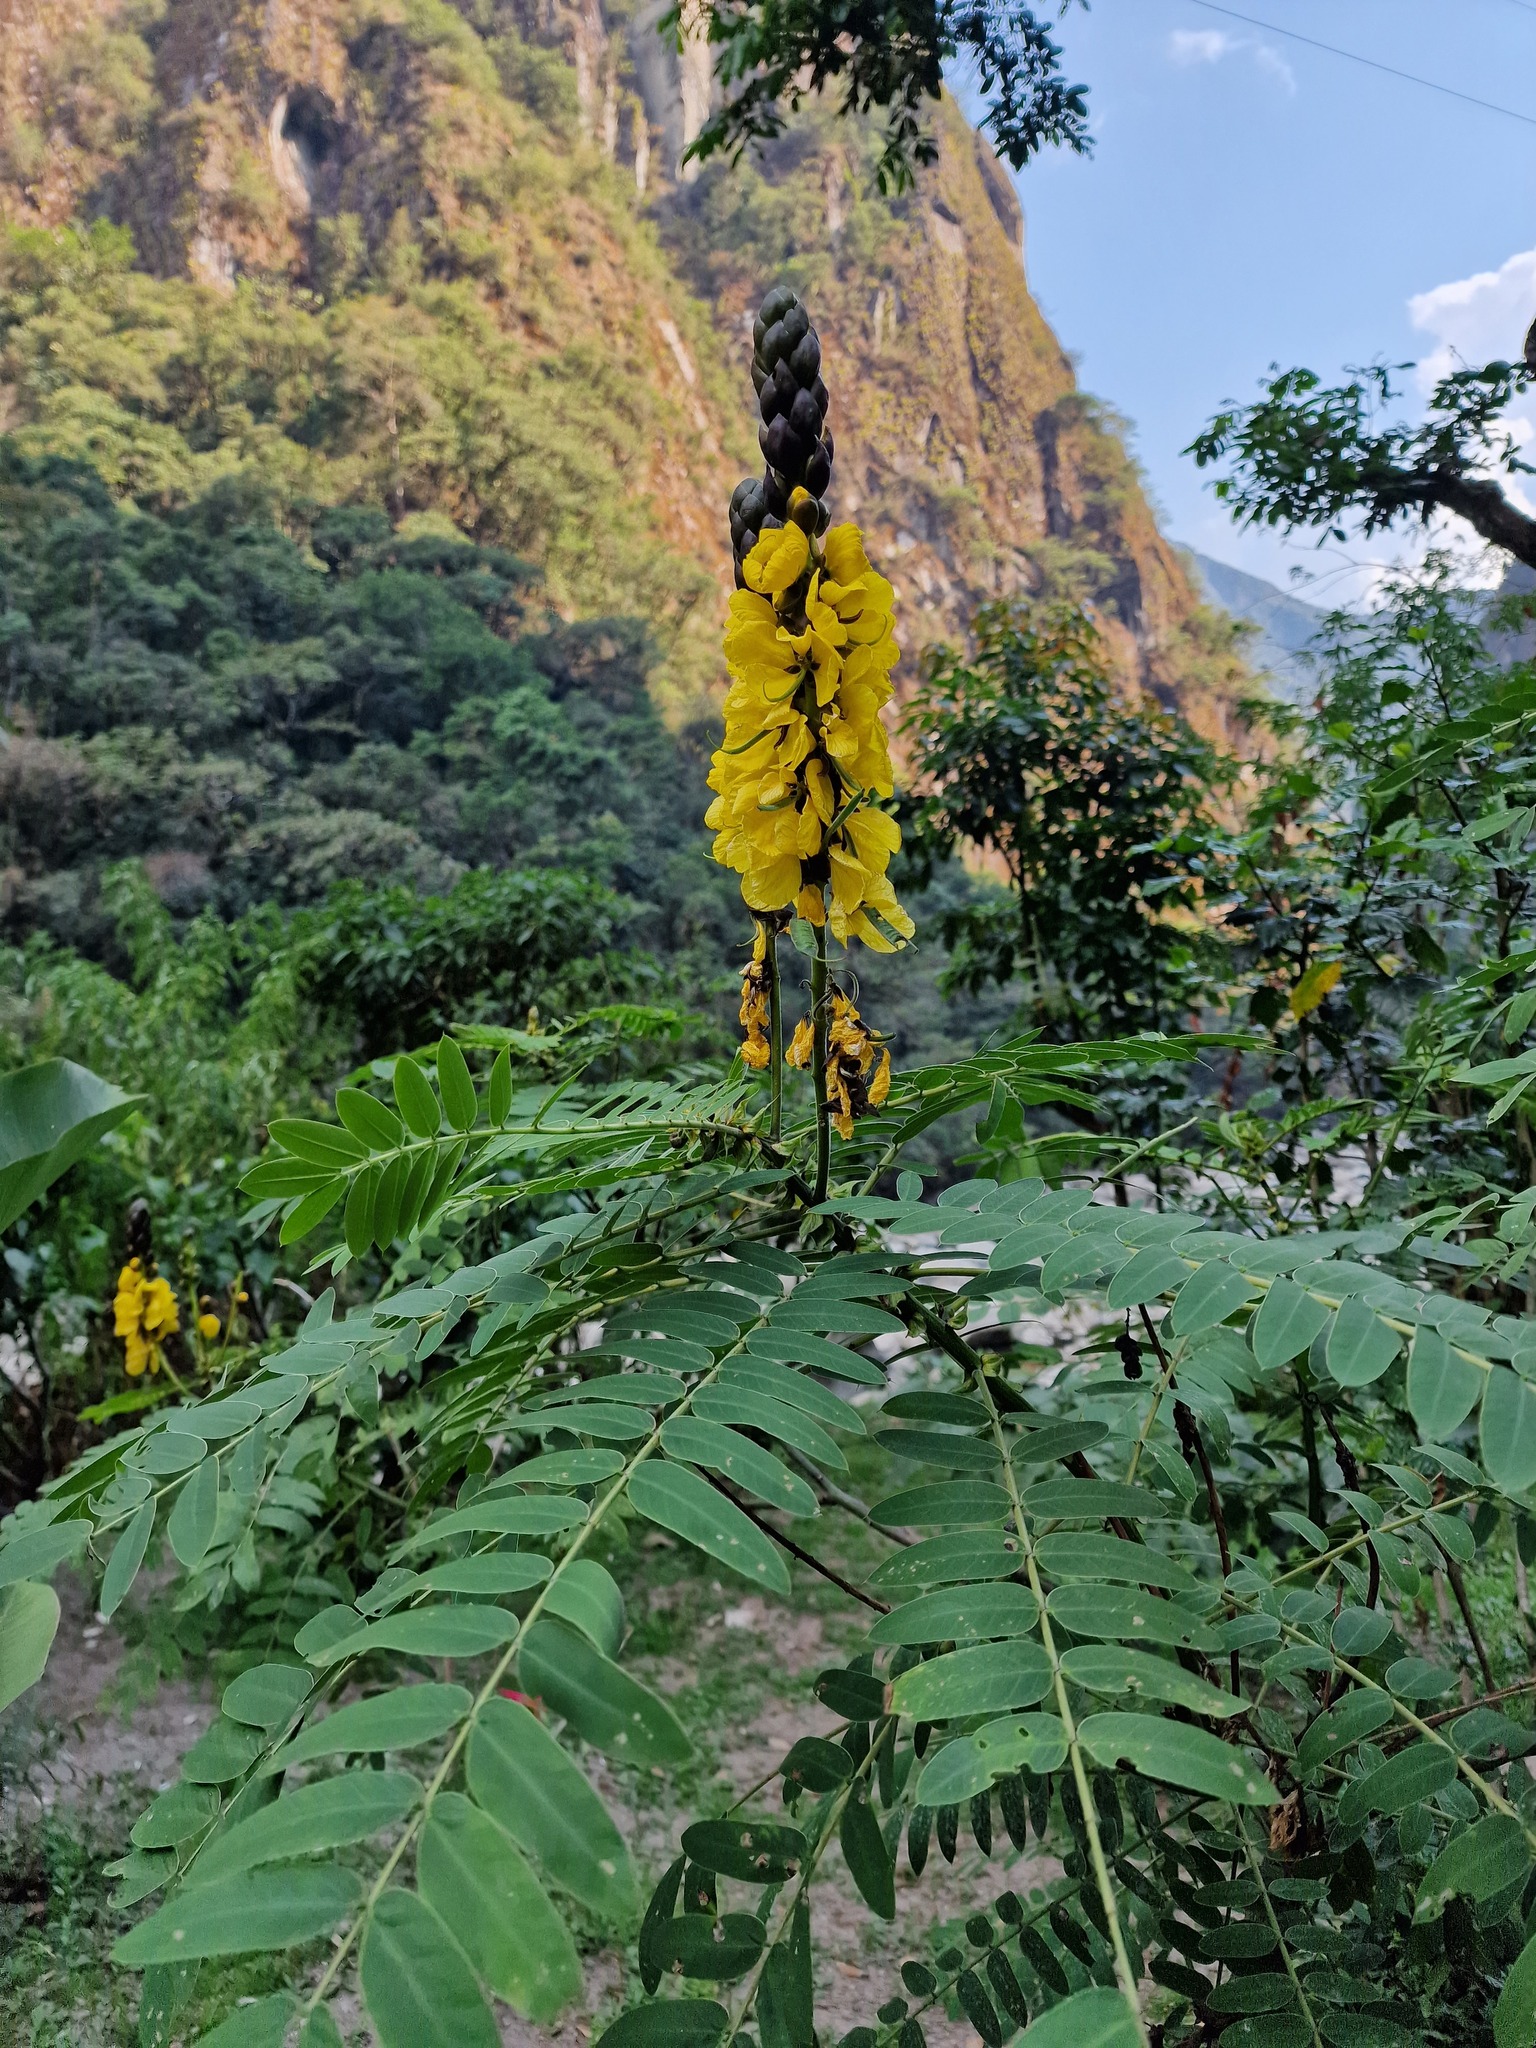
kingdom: Plantae
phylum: Tracheophyta
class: Magnoliopsida
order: Fabales
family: Fabaceae
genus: Senna
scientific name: Senna didymobotrya
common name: African senna
